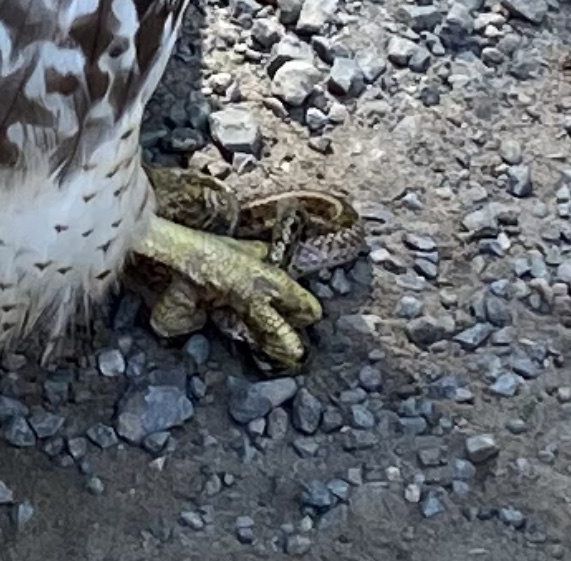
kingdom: Animalia
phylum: Chordata
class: Squamata
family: Colubridae
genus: Thamnophis
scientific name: Thamnophis sirtalis
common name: Common garter snake
